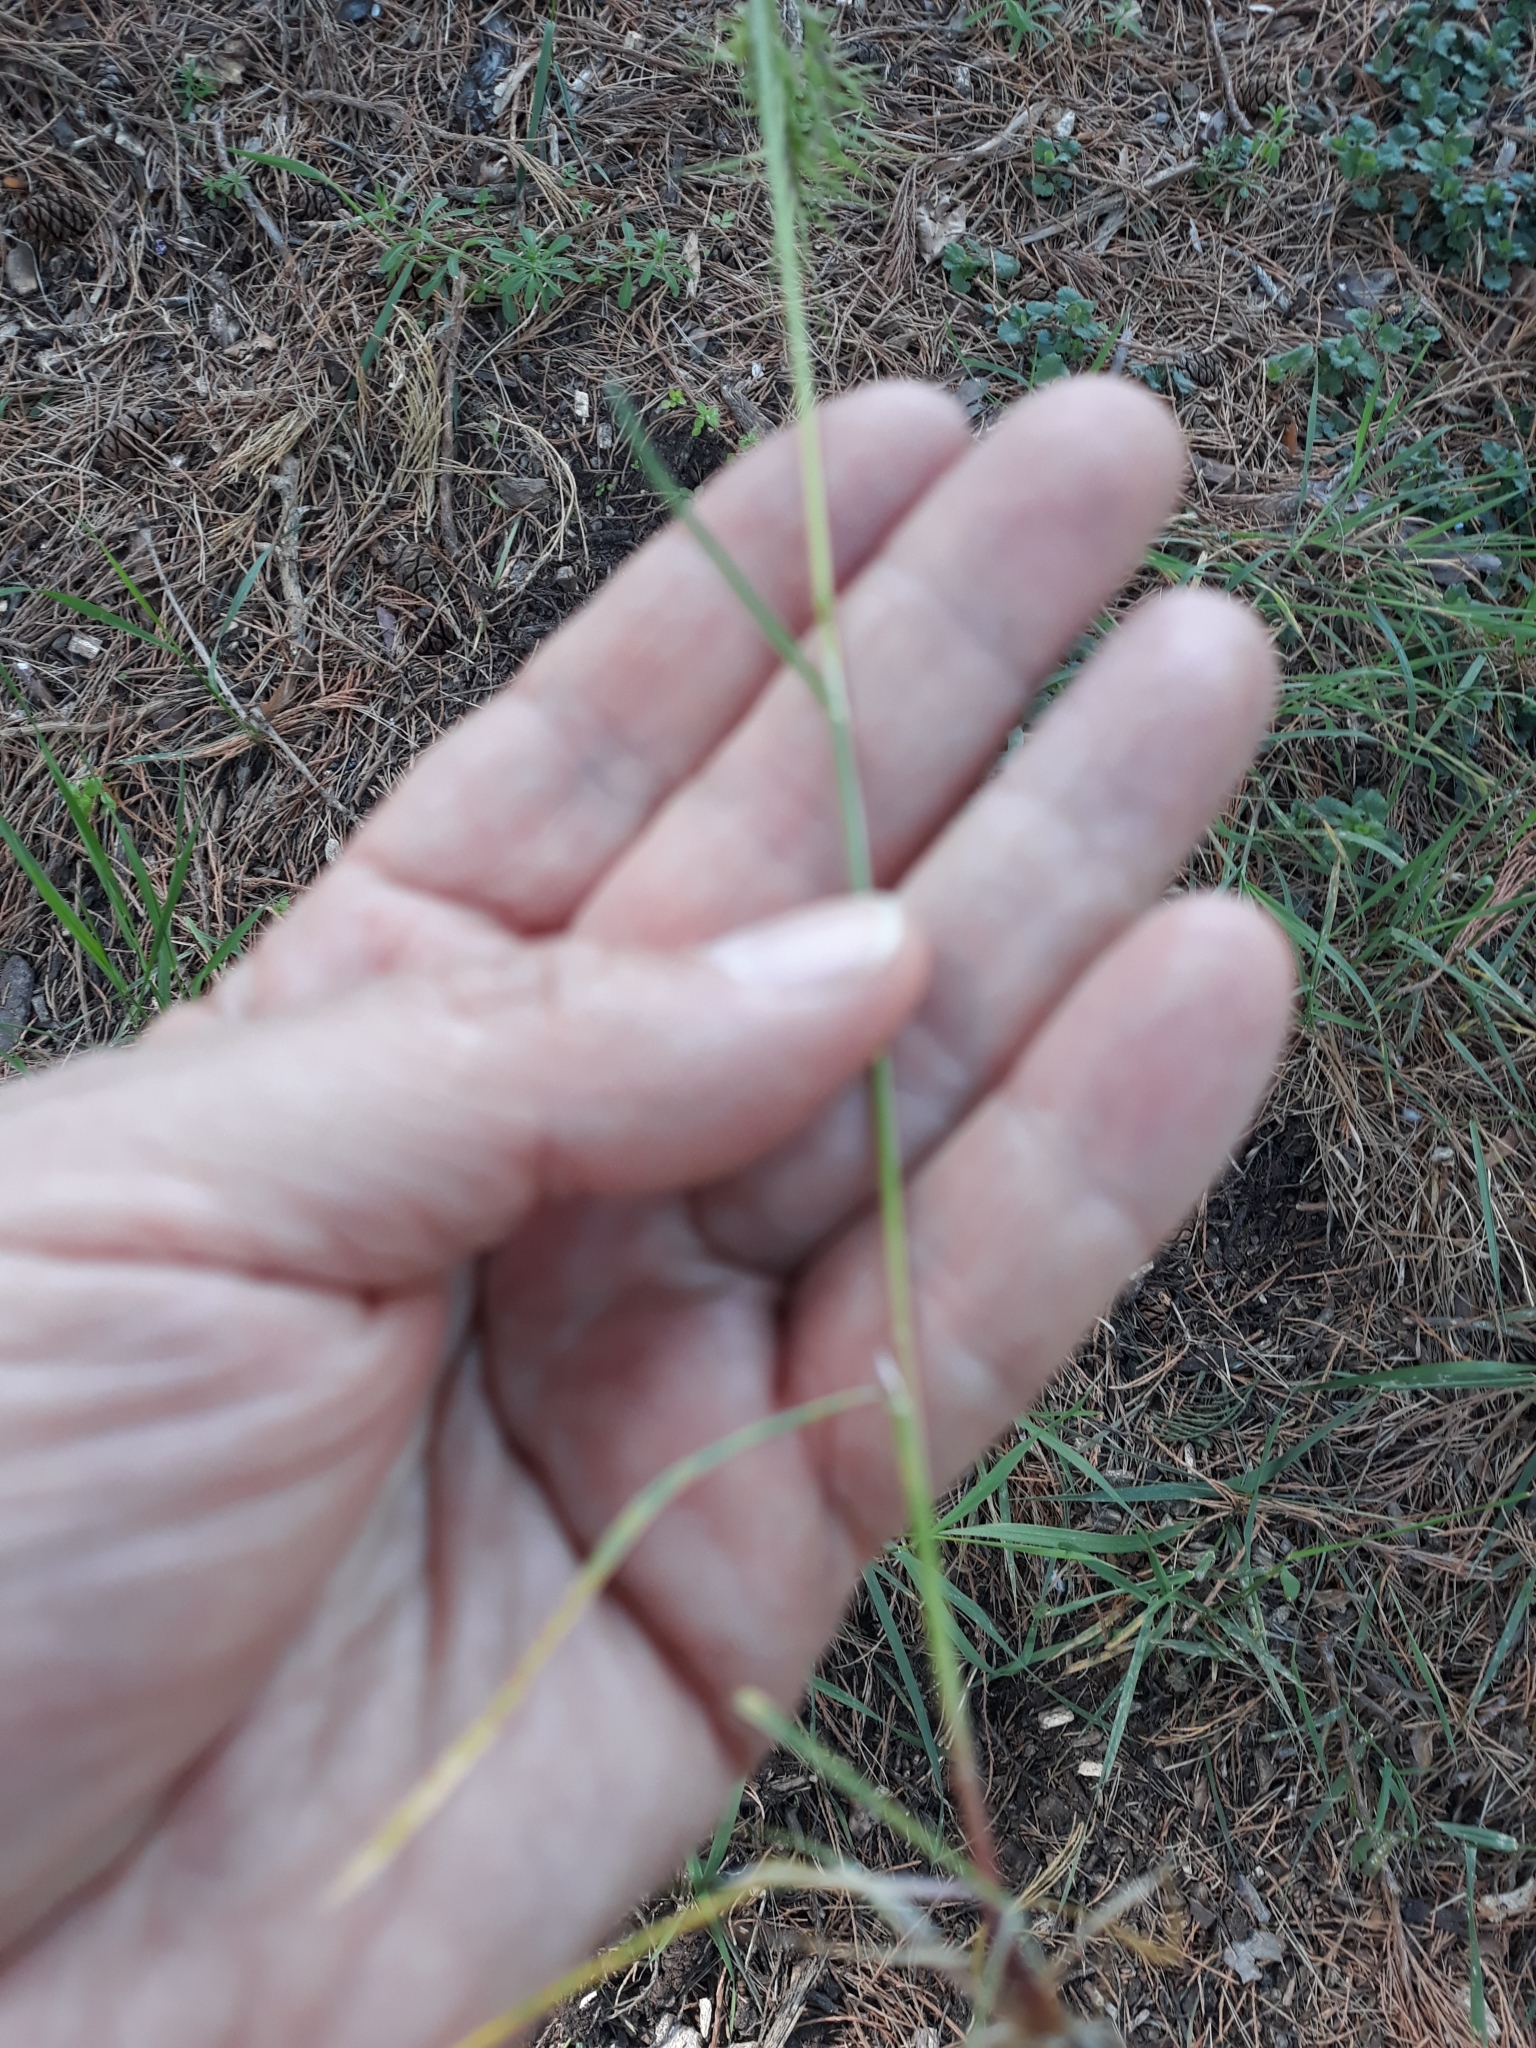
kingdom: Plantae
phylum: Tracheophyta
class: Liliopsida
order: Poales
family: Poaceae
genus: Poa
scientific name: Poa bulbosa
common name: Bulbous bluegrass
